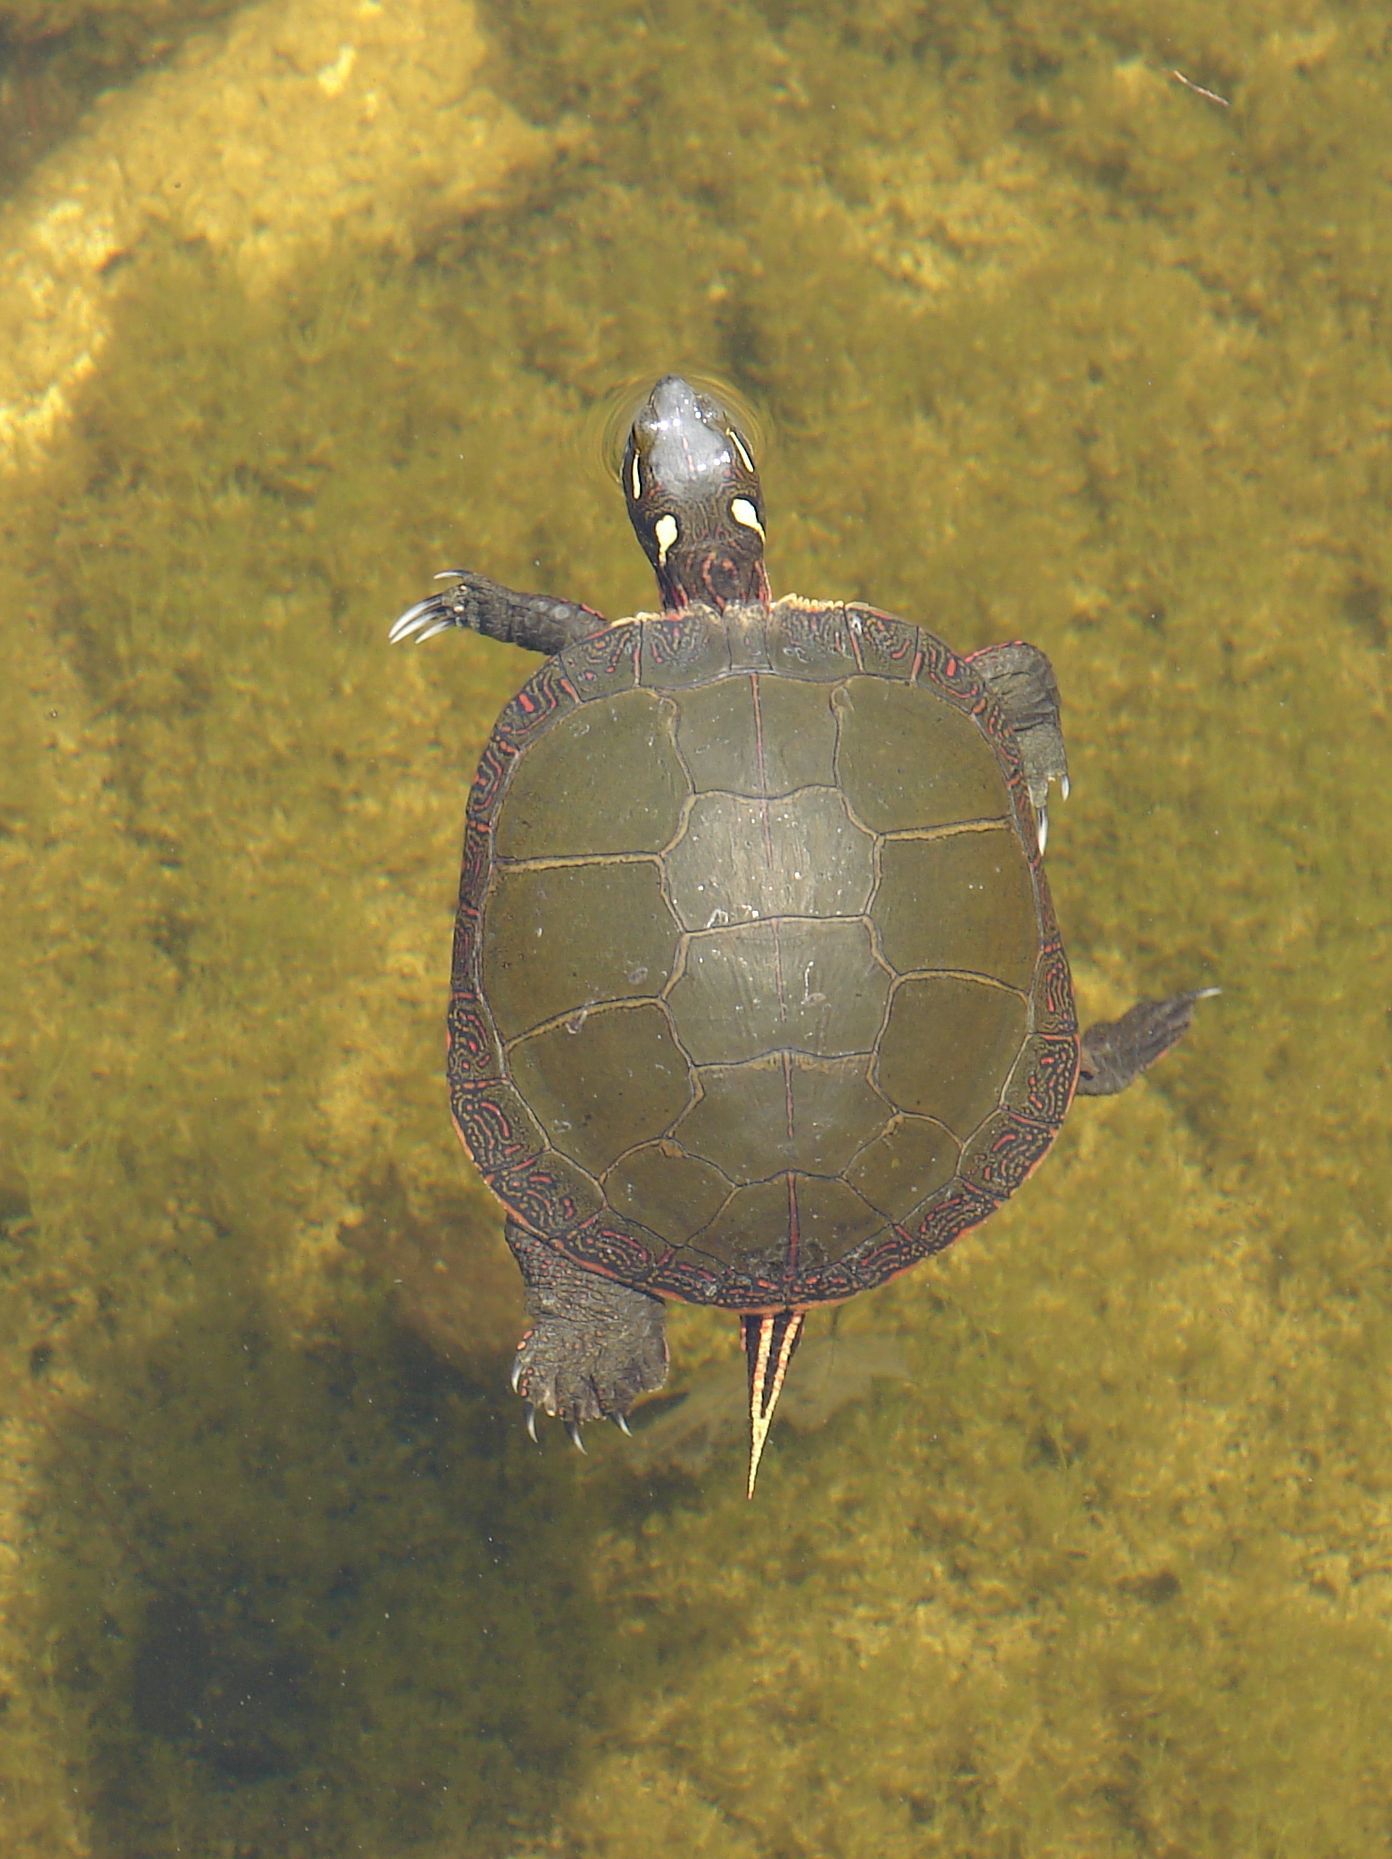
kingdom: Animalia
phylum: Chordata
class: Testudines
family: Emydidae
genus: Chrysemys
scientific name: Chrysemys picta
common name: Painted turtle
